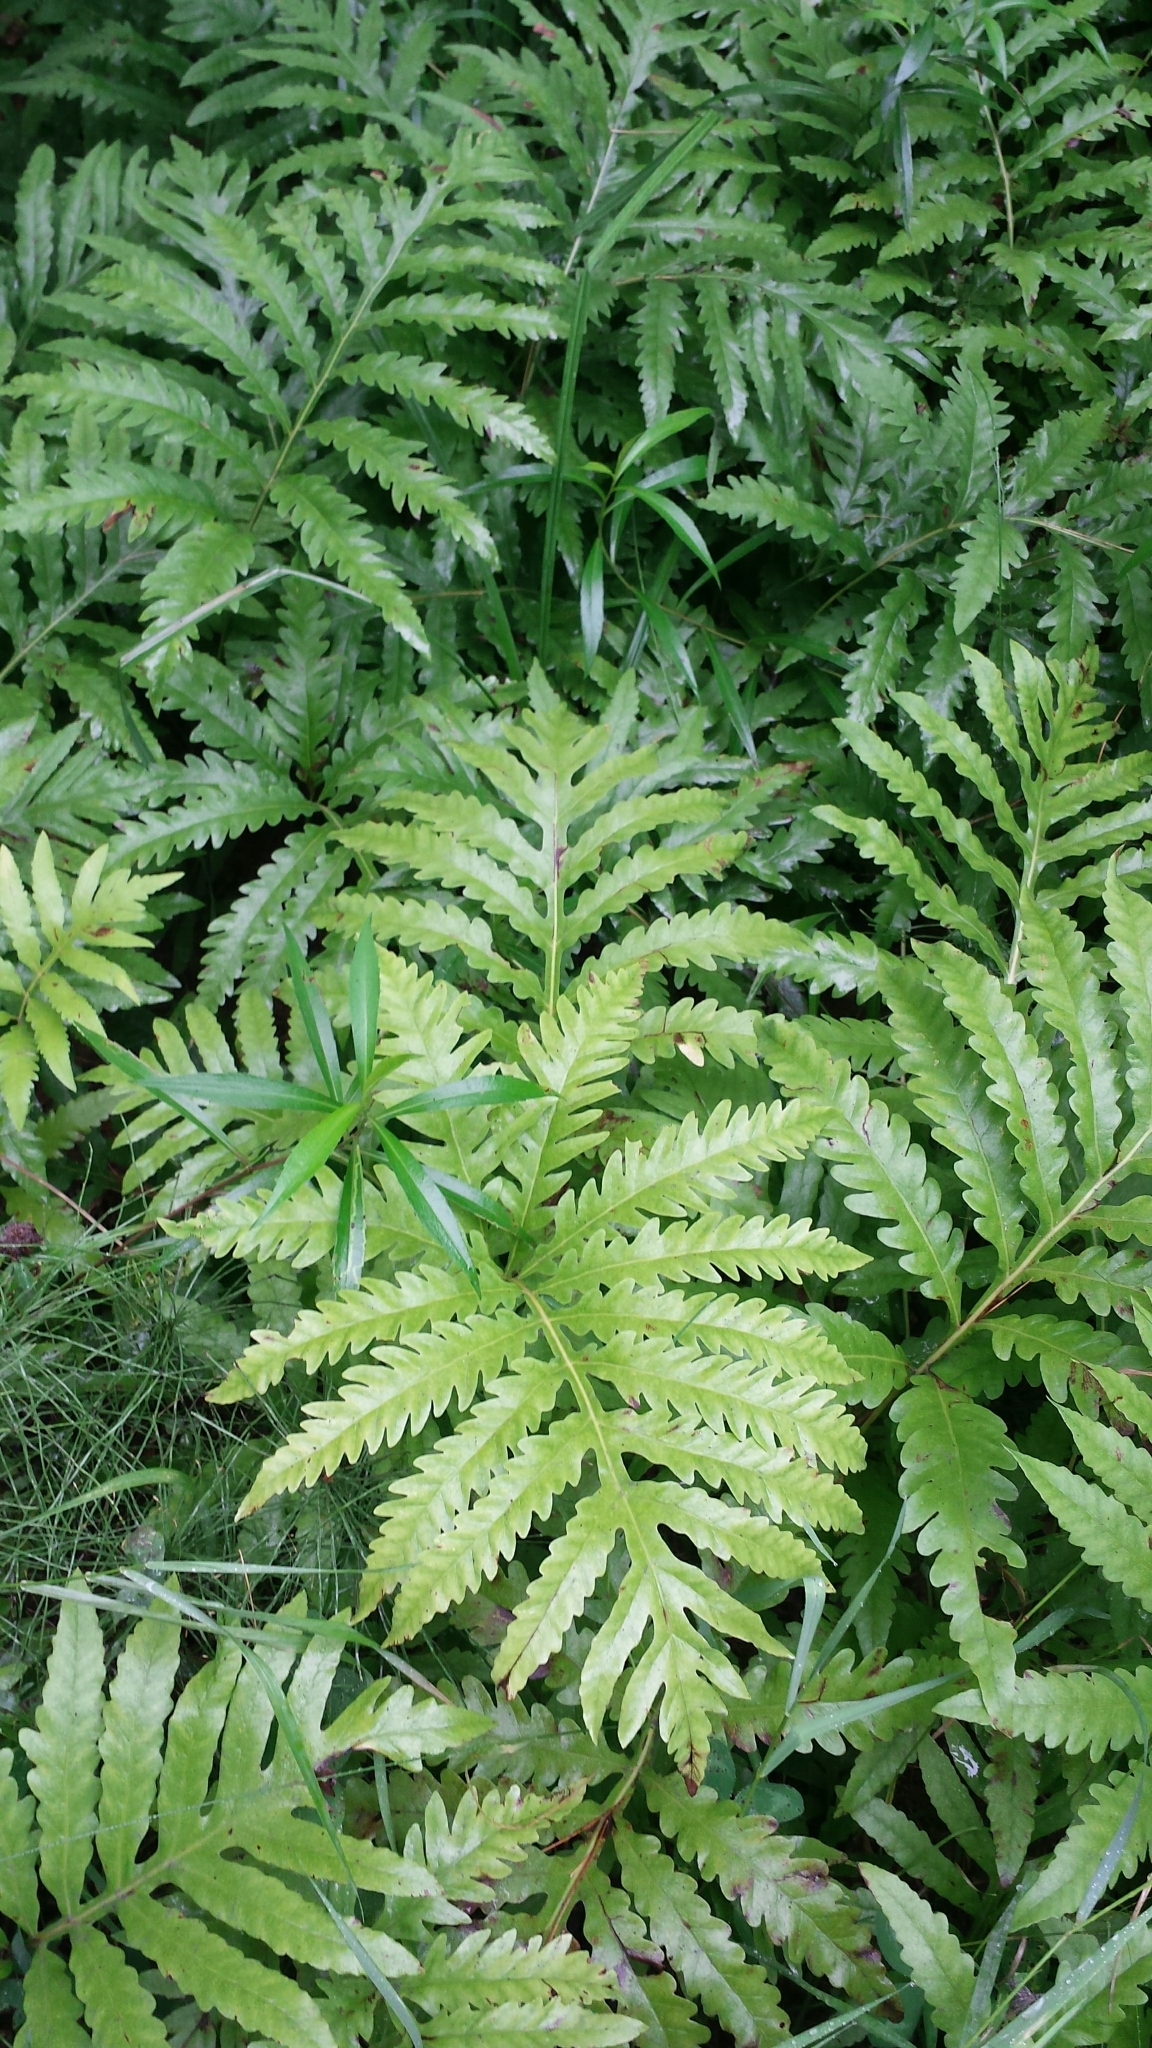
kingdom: Plantae
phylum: Tracheophyta
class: Polypodiopsida
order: Polypodiales
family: Onocleaceae
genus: Onoclea
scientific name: Onoclea sensibilis
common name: Sensitive fern
